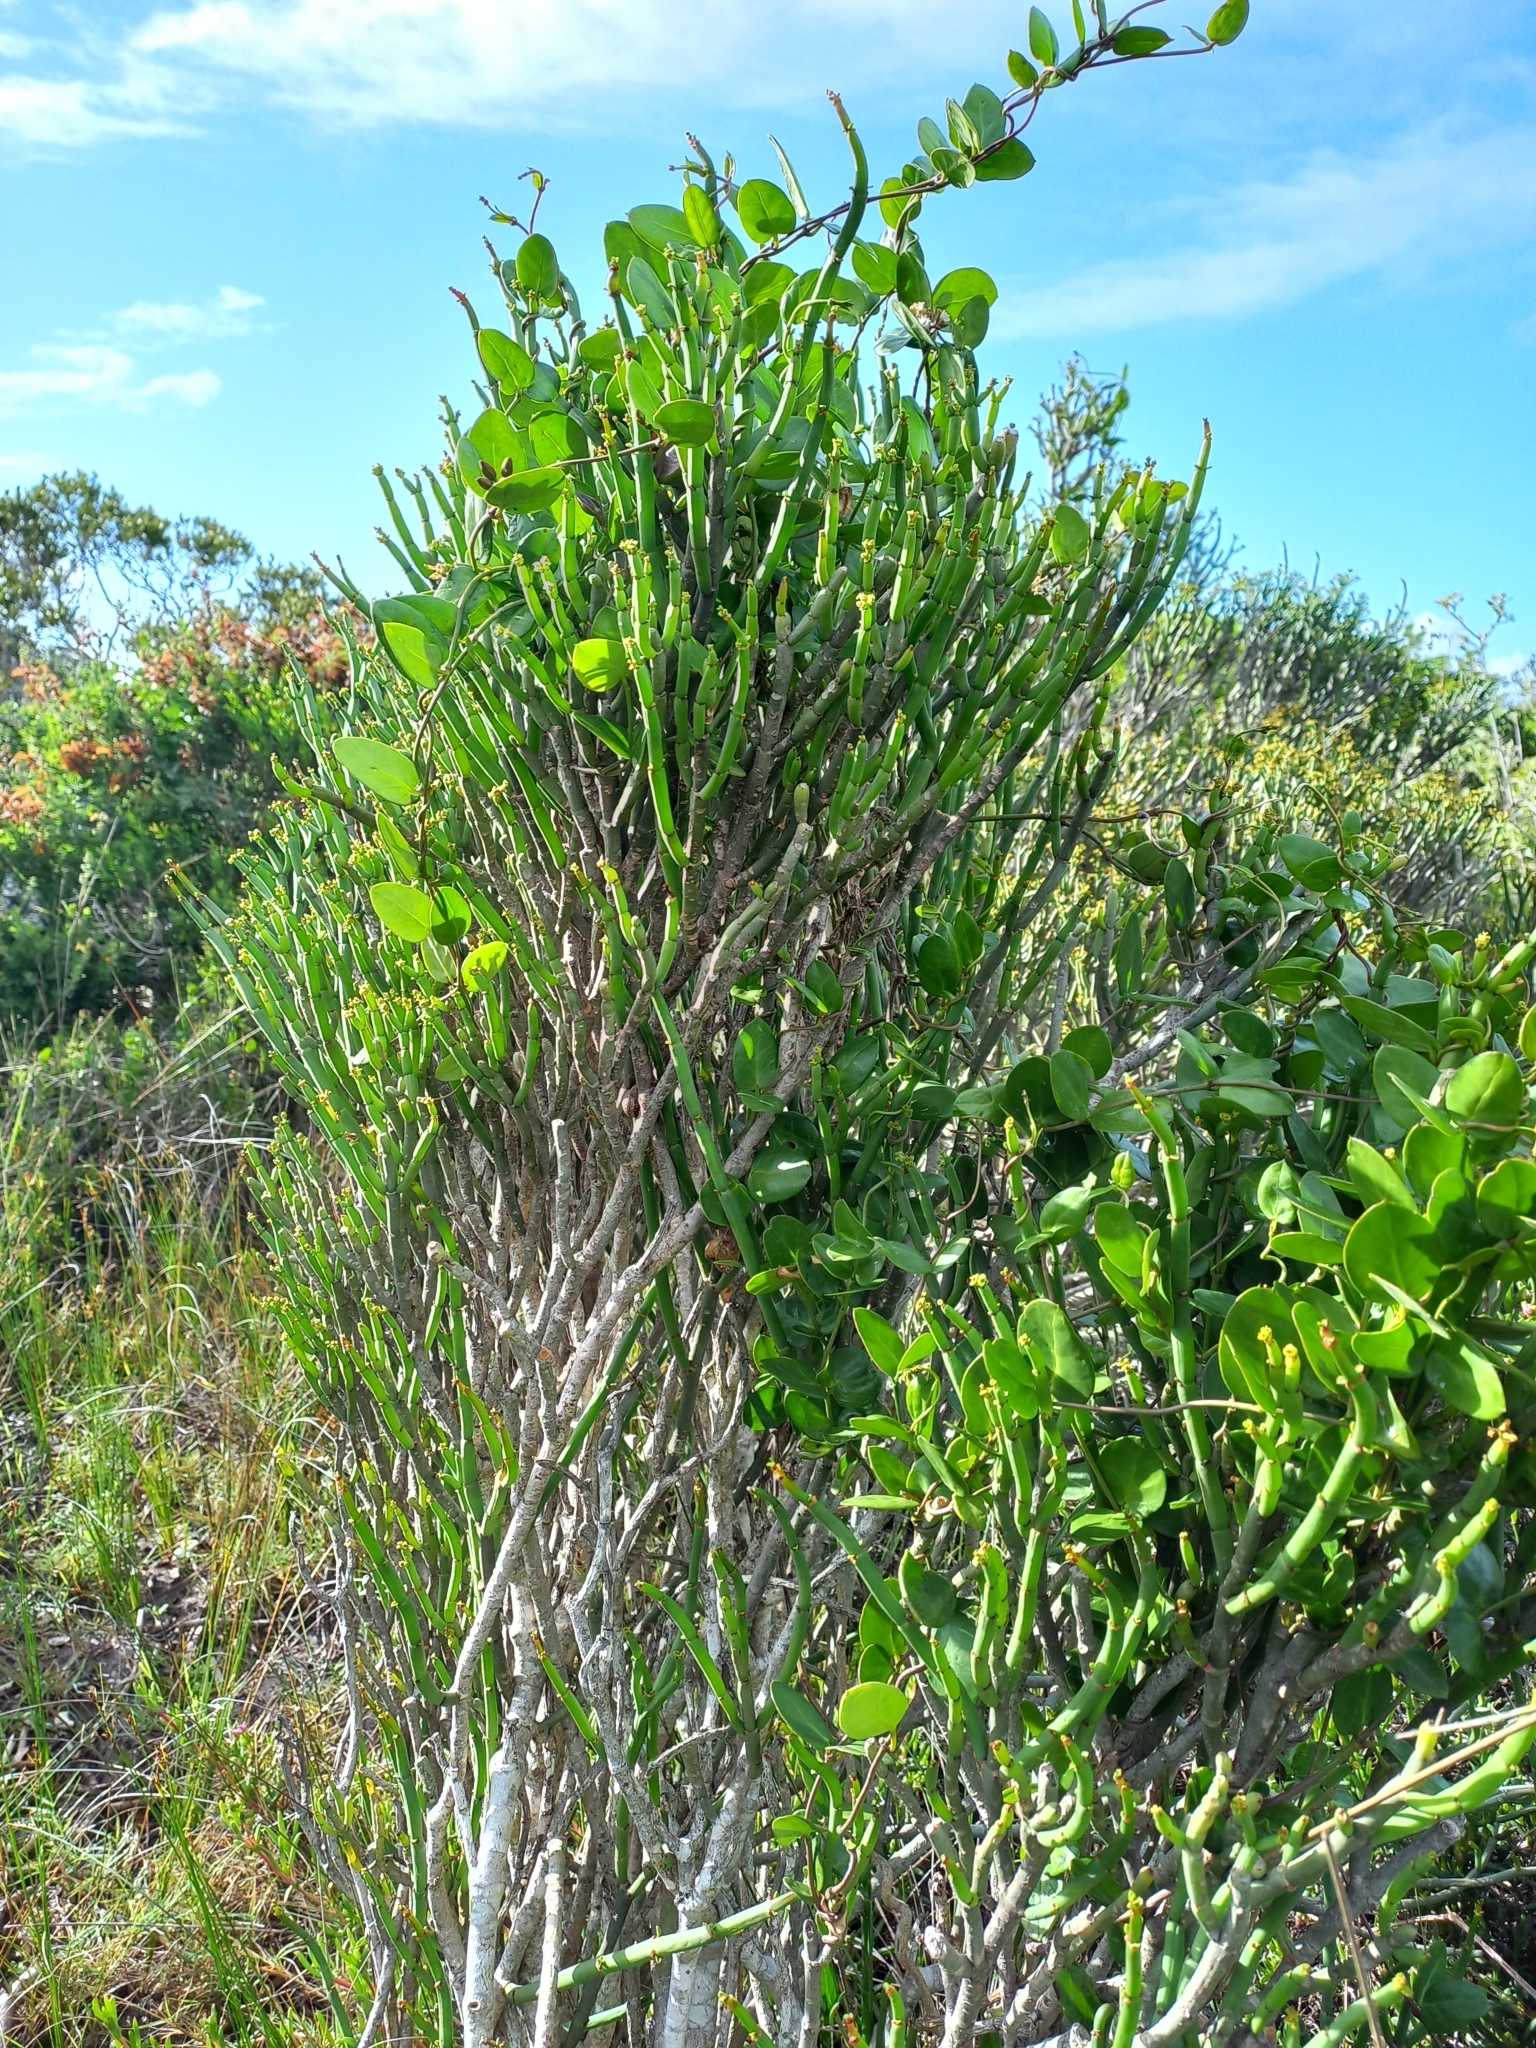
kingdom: Plantae
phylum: Tracheophyta
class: Magnoliopsida
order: Malpighiales
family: Euphorbiaceae
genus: Euphorbia
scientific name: Euphorbia burmanni
